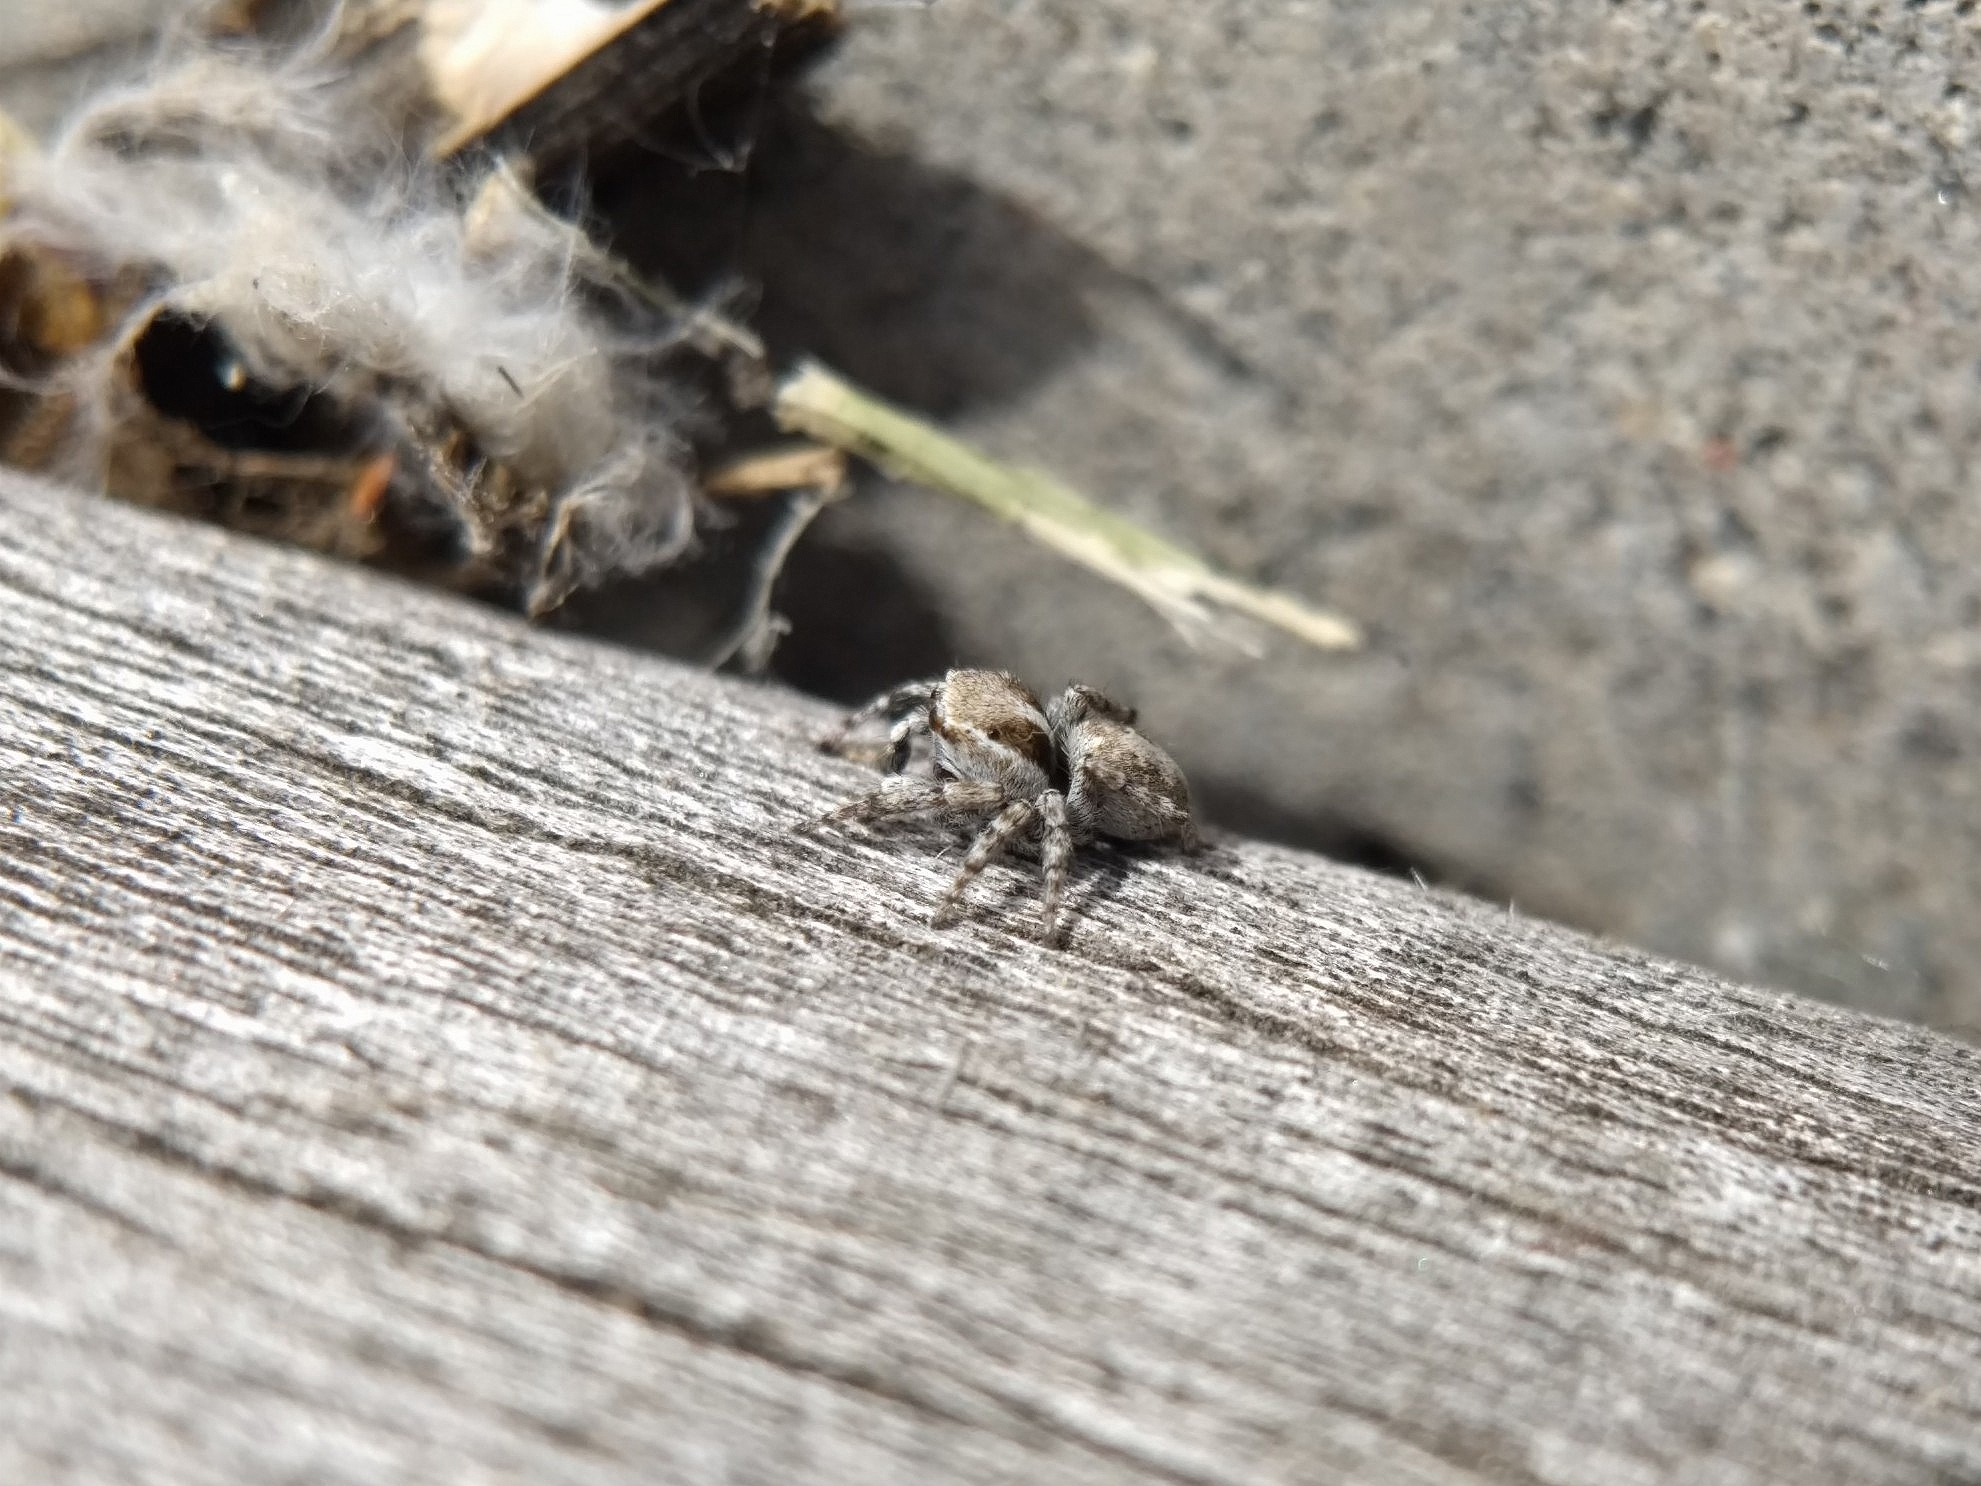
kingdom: Animalia
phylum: Arthropoda
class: Arachnida
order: Araneae
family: Salticidae
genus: Attulus
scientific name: Attulus ammophilus
